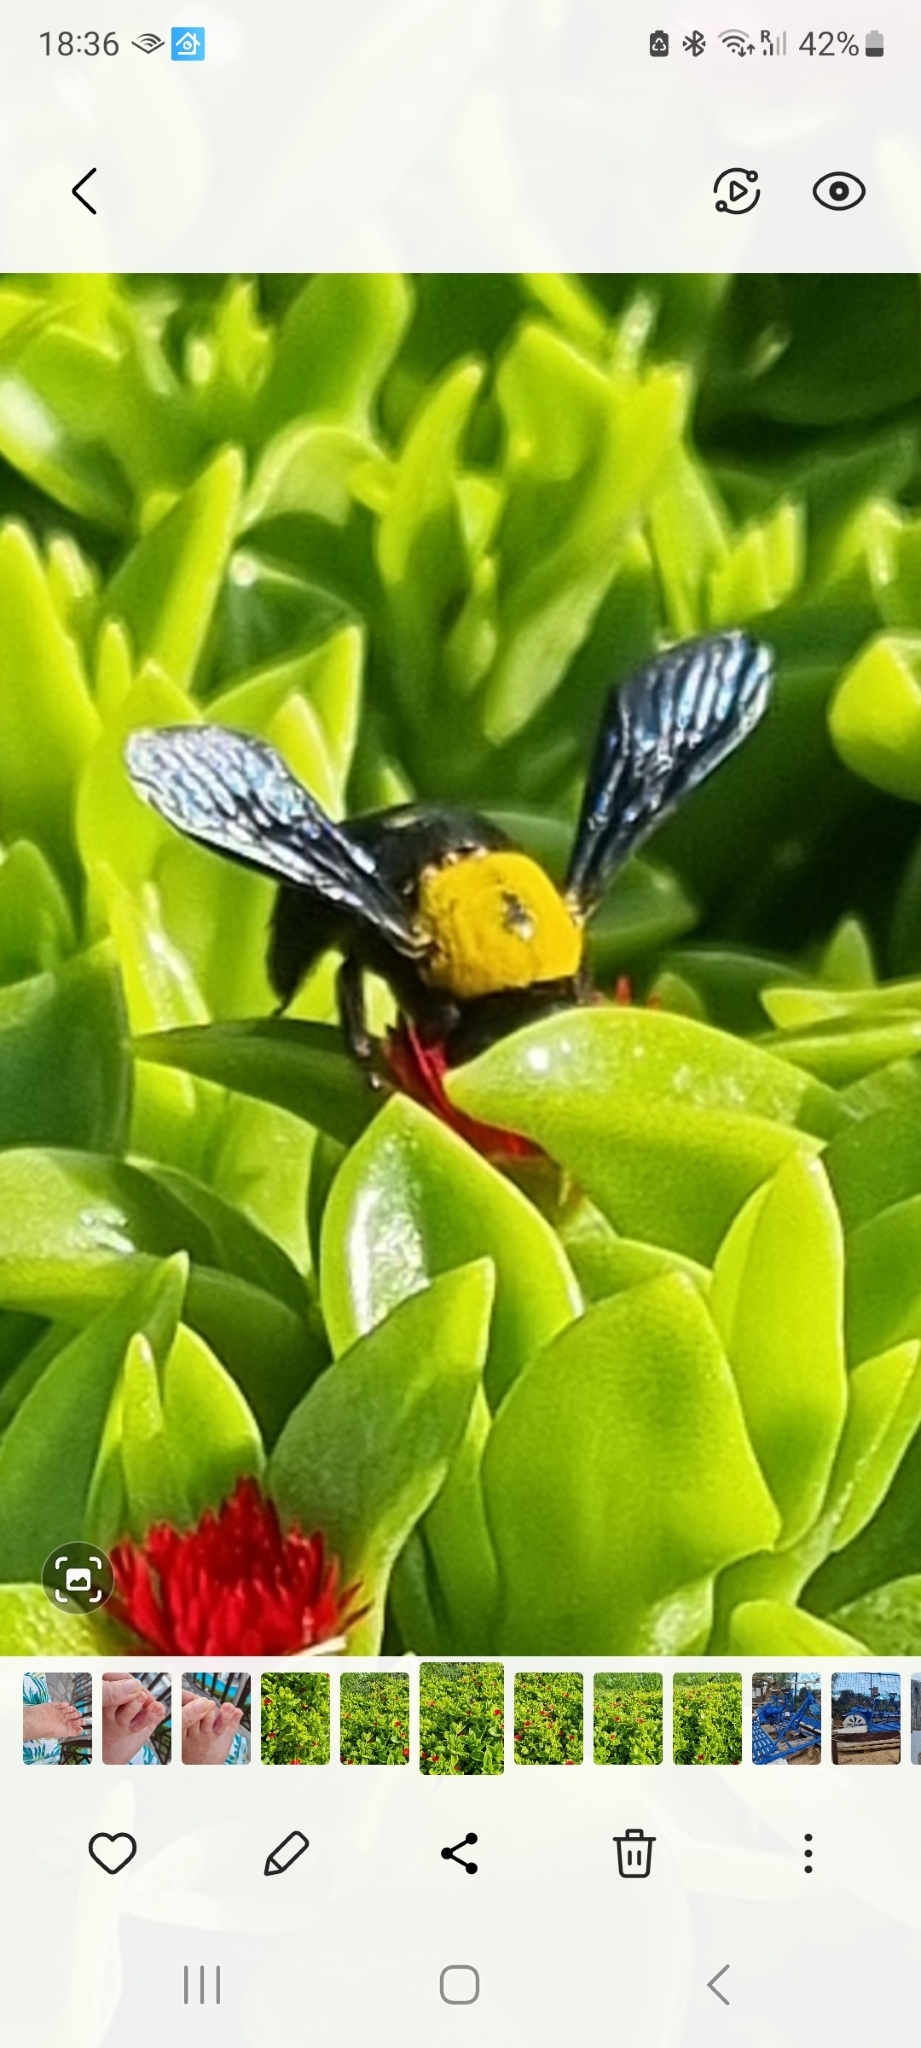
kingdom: Animalia
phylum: Arthropoda
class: Insecta
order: Hymenoptera
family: Apidae
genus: Xylocopa
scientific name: Xylocopa pubescens
